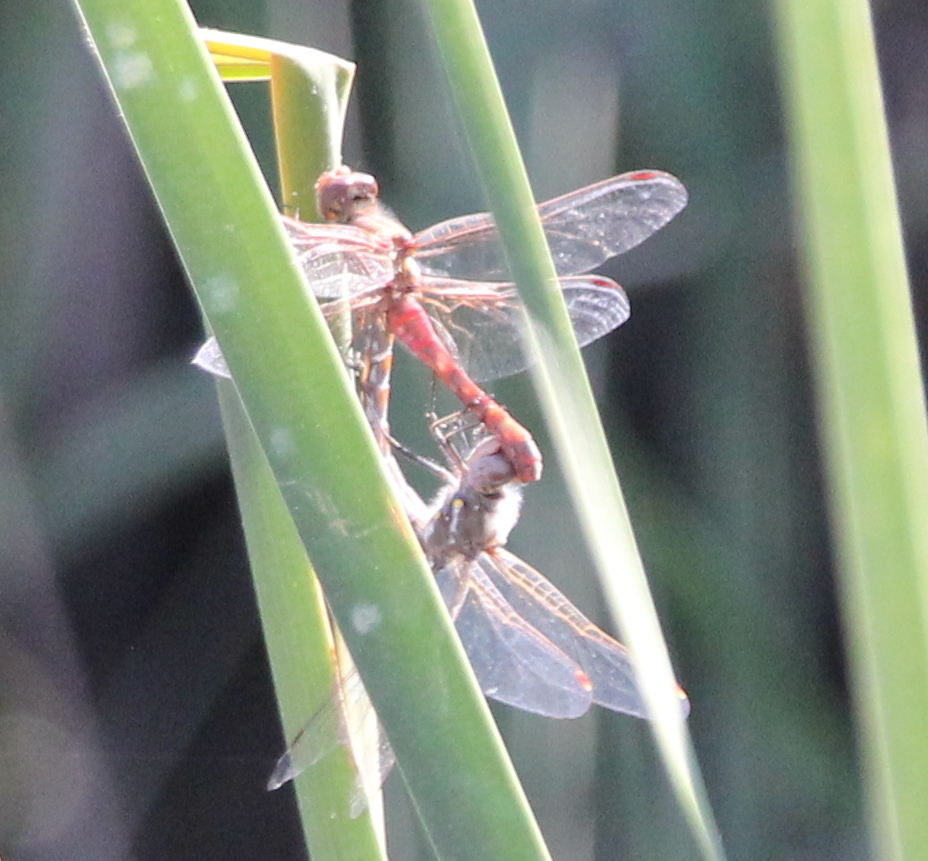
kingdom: Animalia
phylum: Arthropoda
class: Insecta
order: Odonata
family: Libellulidae
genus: Sympetrum
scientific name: Sympetrum corruptum
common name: Variegated meadowhawk
